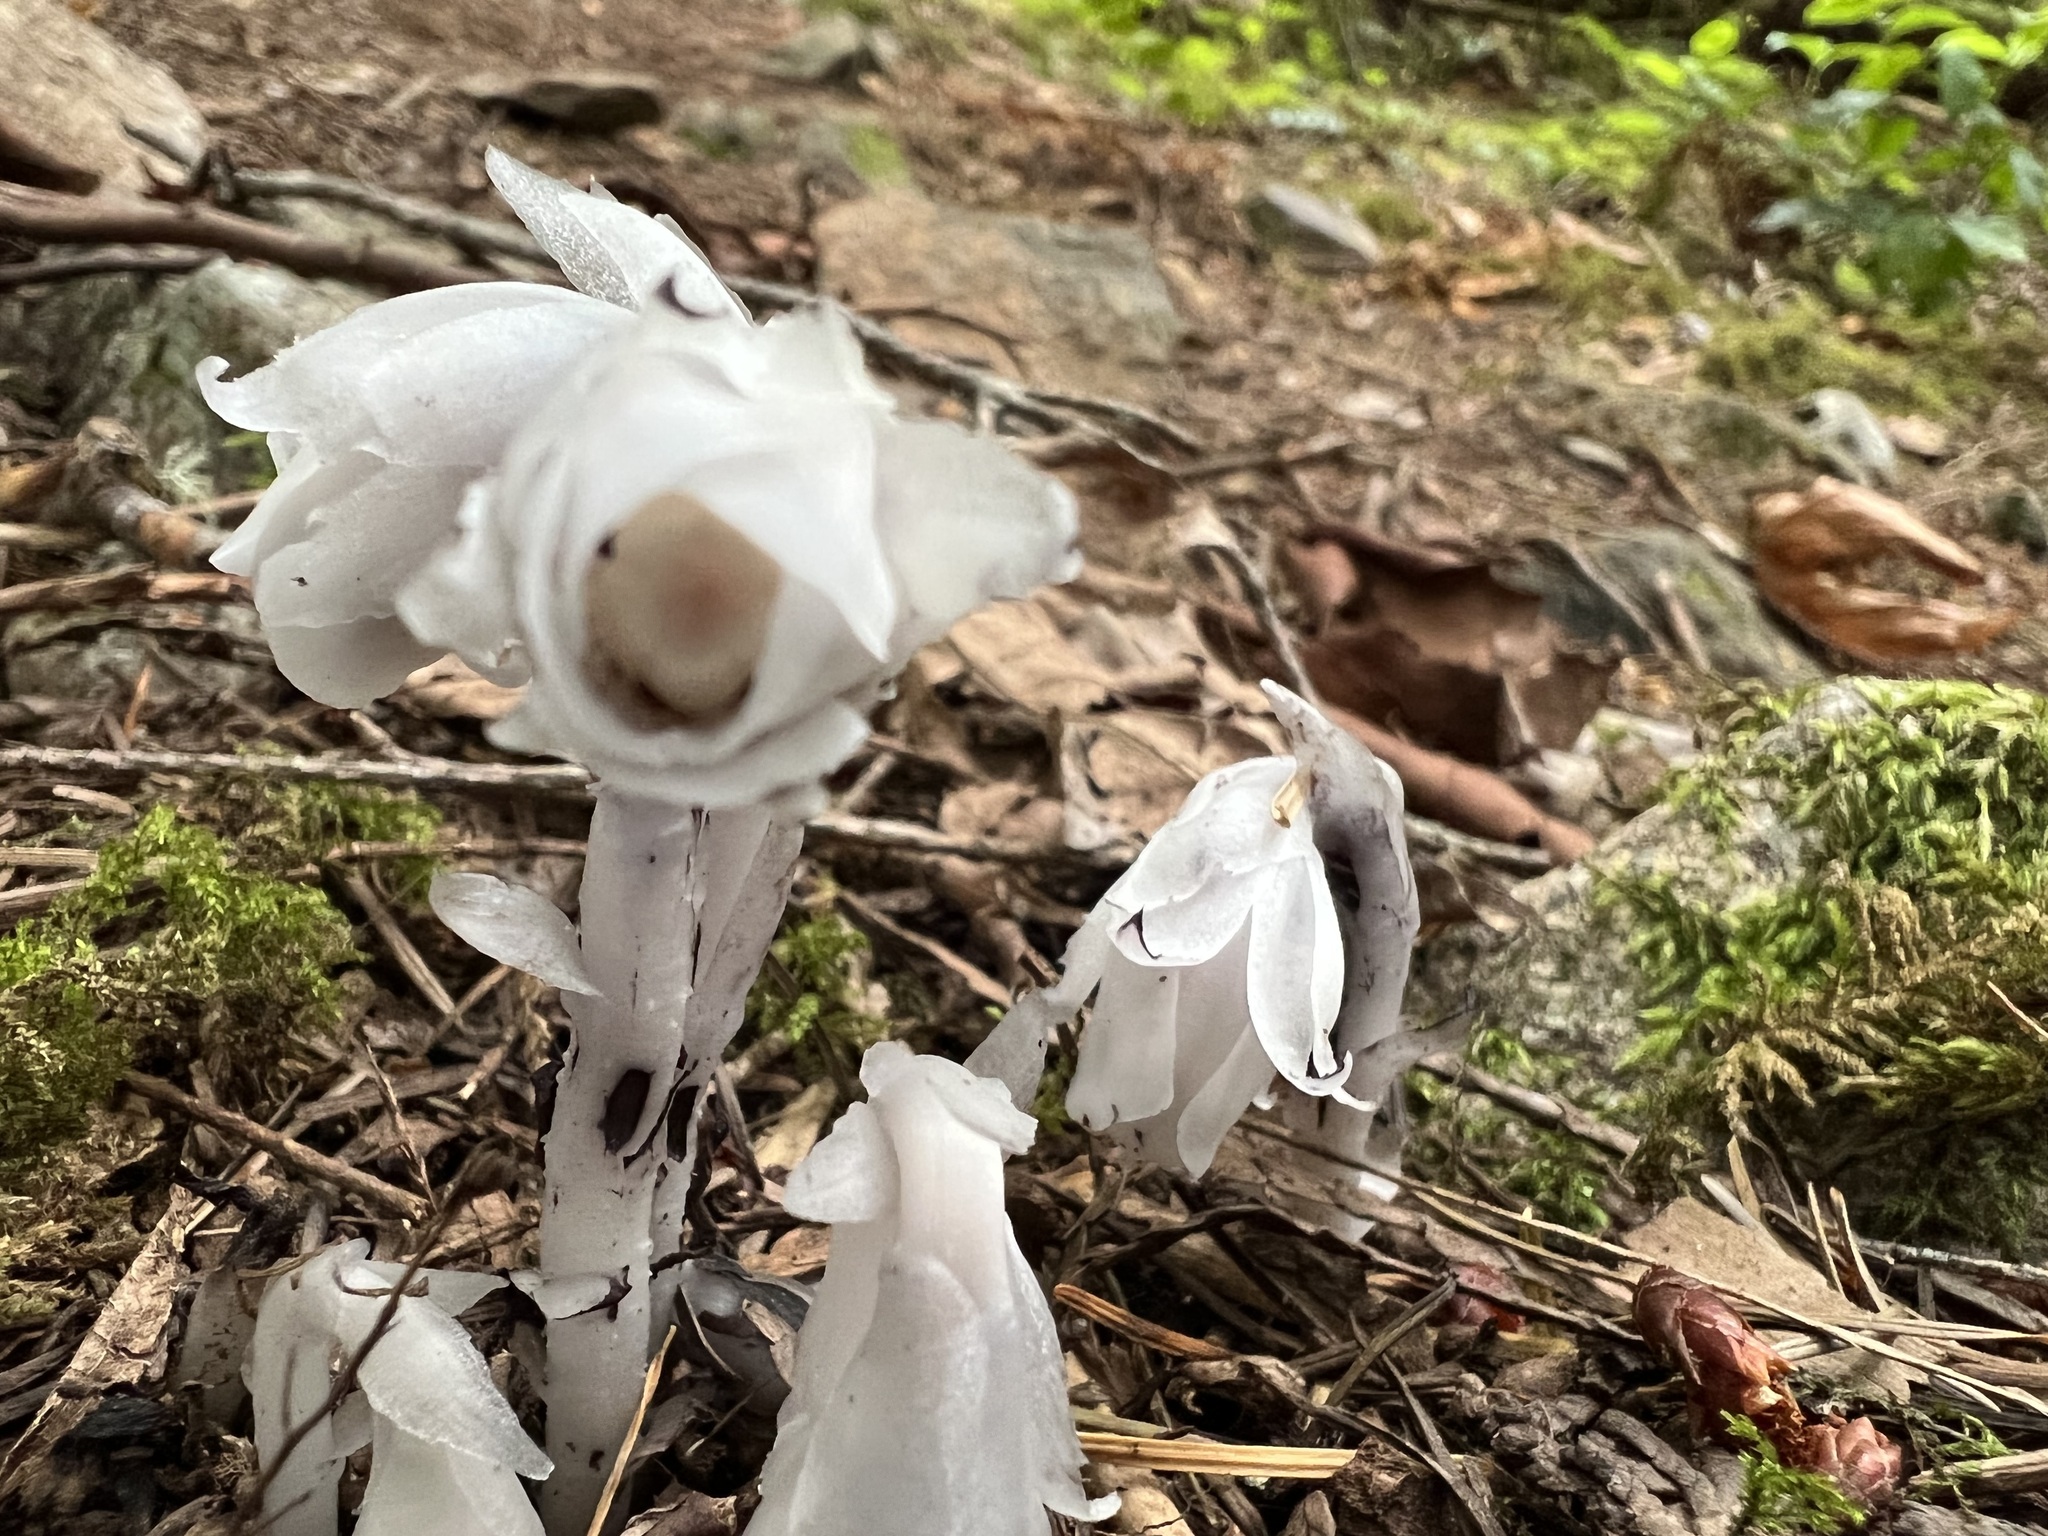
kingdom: Plantae
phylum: Tracheophyta
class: Magnoliopsida
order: Ericales
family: Ericaceae
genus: Monotropa
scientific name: Monotropa uniflora
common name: Convulsion root
